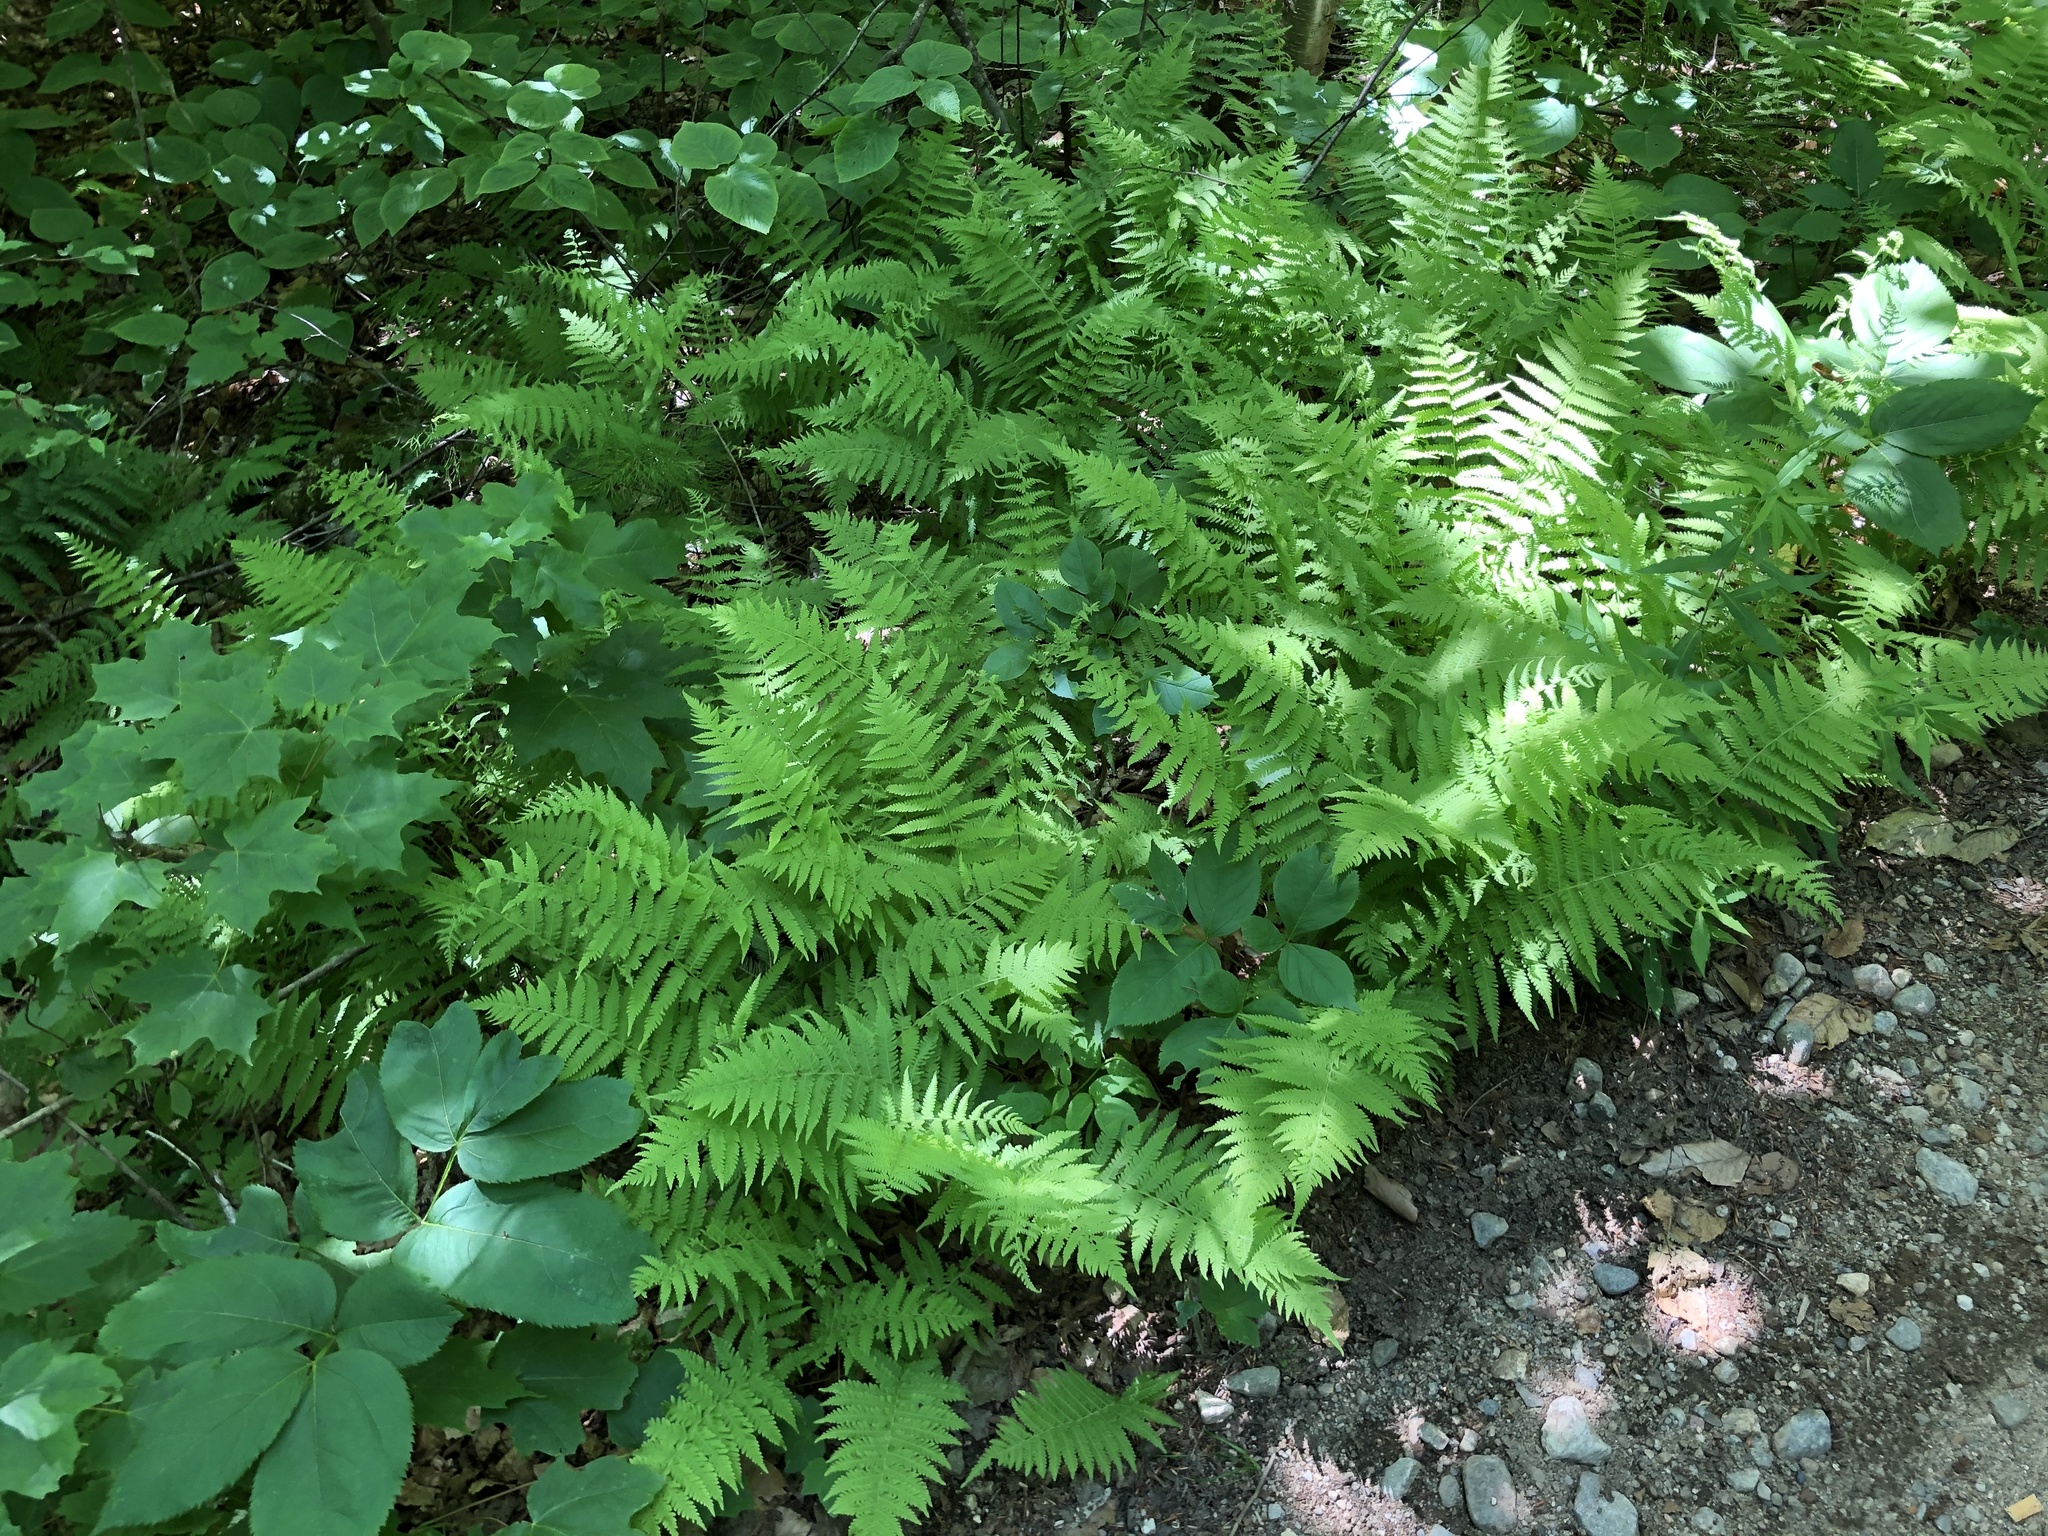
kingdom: Plantae
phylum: Tracheophyta
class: Polypodiopsida
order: Polypodiales
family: Thelypteridaceae
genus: Amauropelta
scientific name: Amauropelta noveboracensis
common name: New york fern
